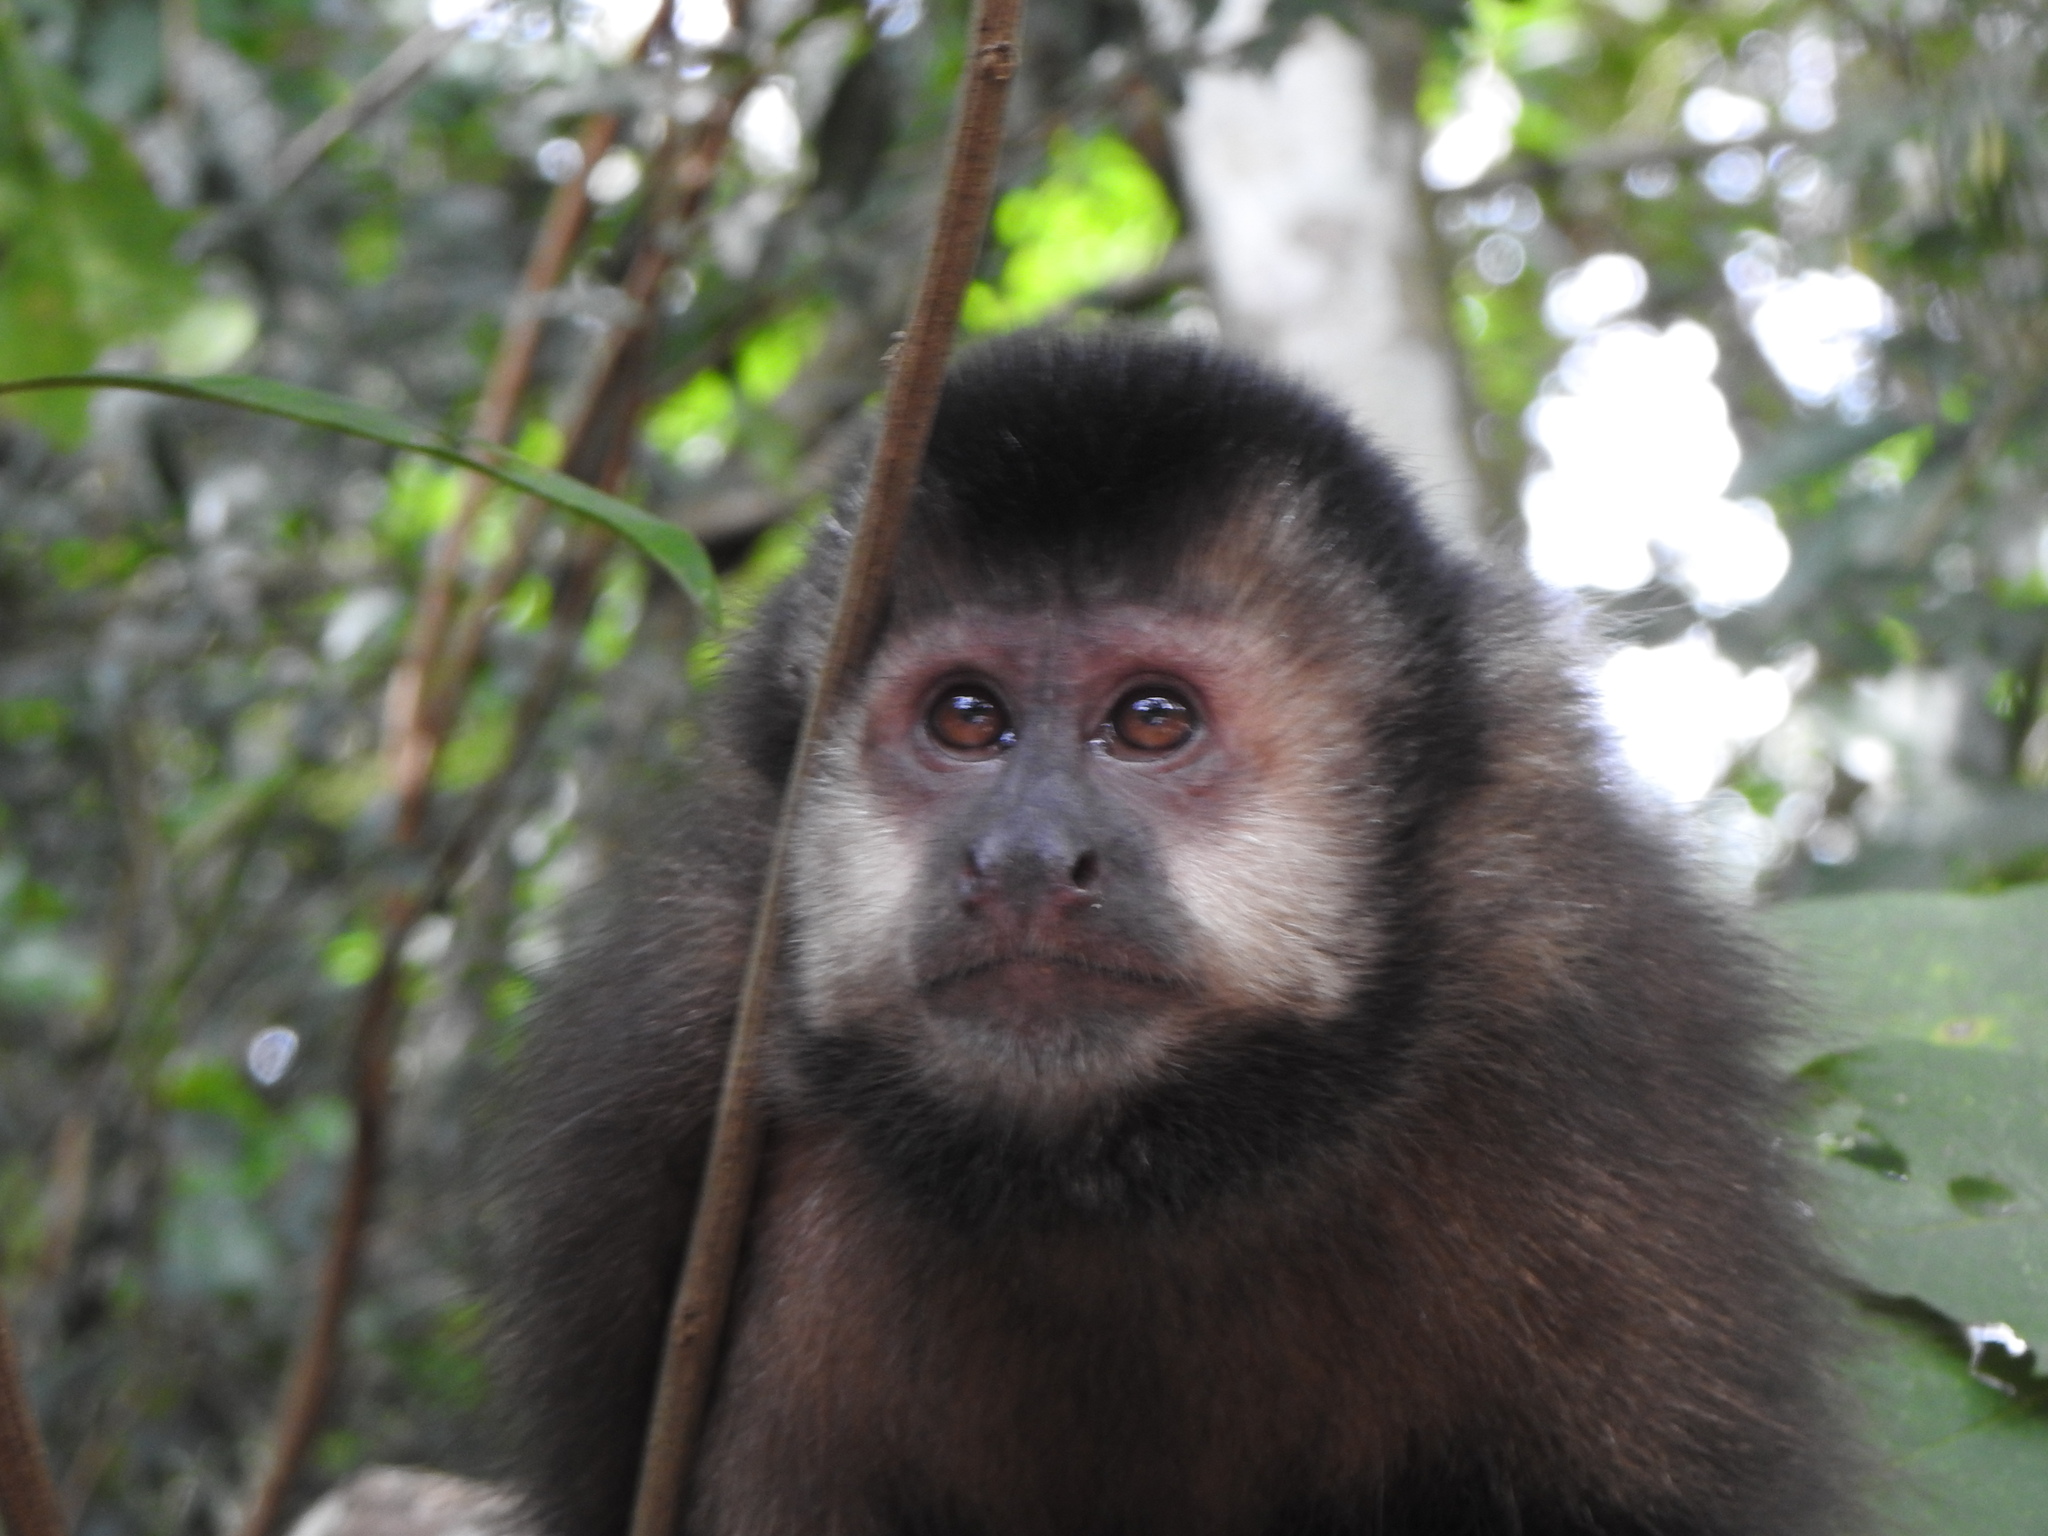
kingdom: Animalia
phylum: Chordata
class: Mammalia
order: Primates
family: Cebidae
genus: Sapajus
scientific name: Sapajus nigritus
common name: Black capuchin
